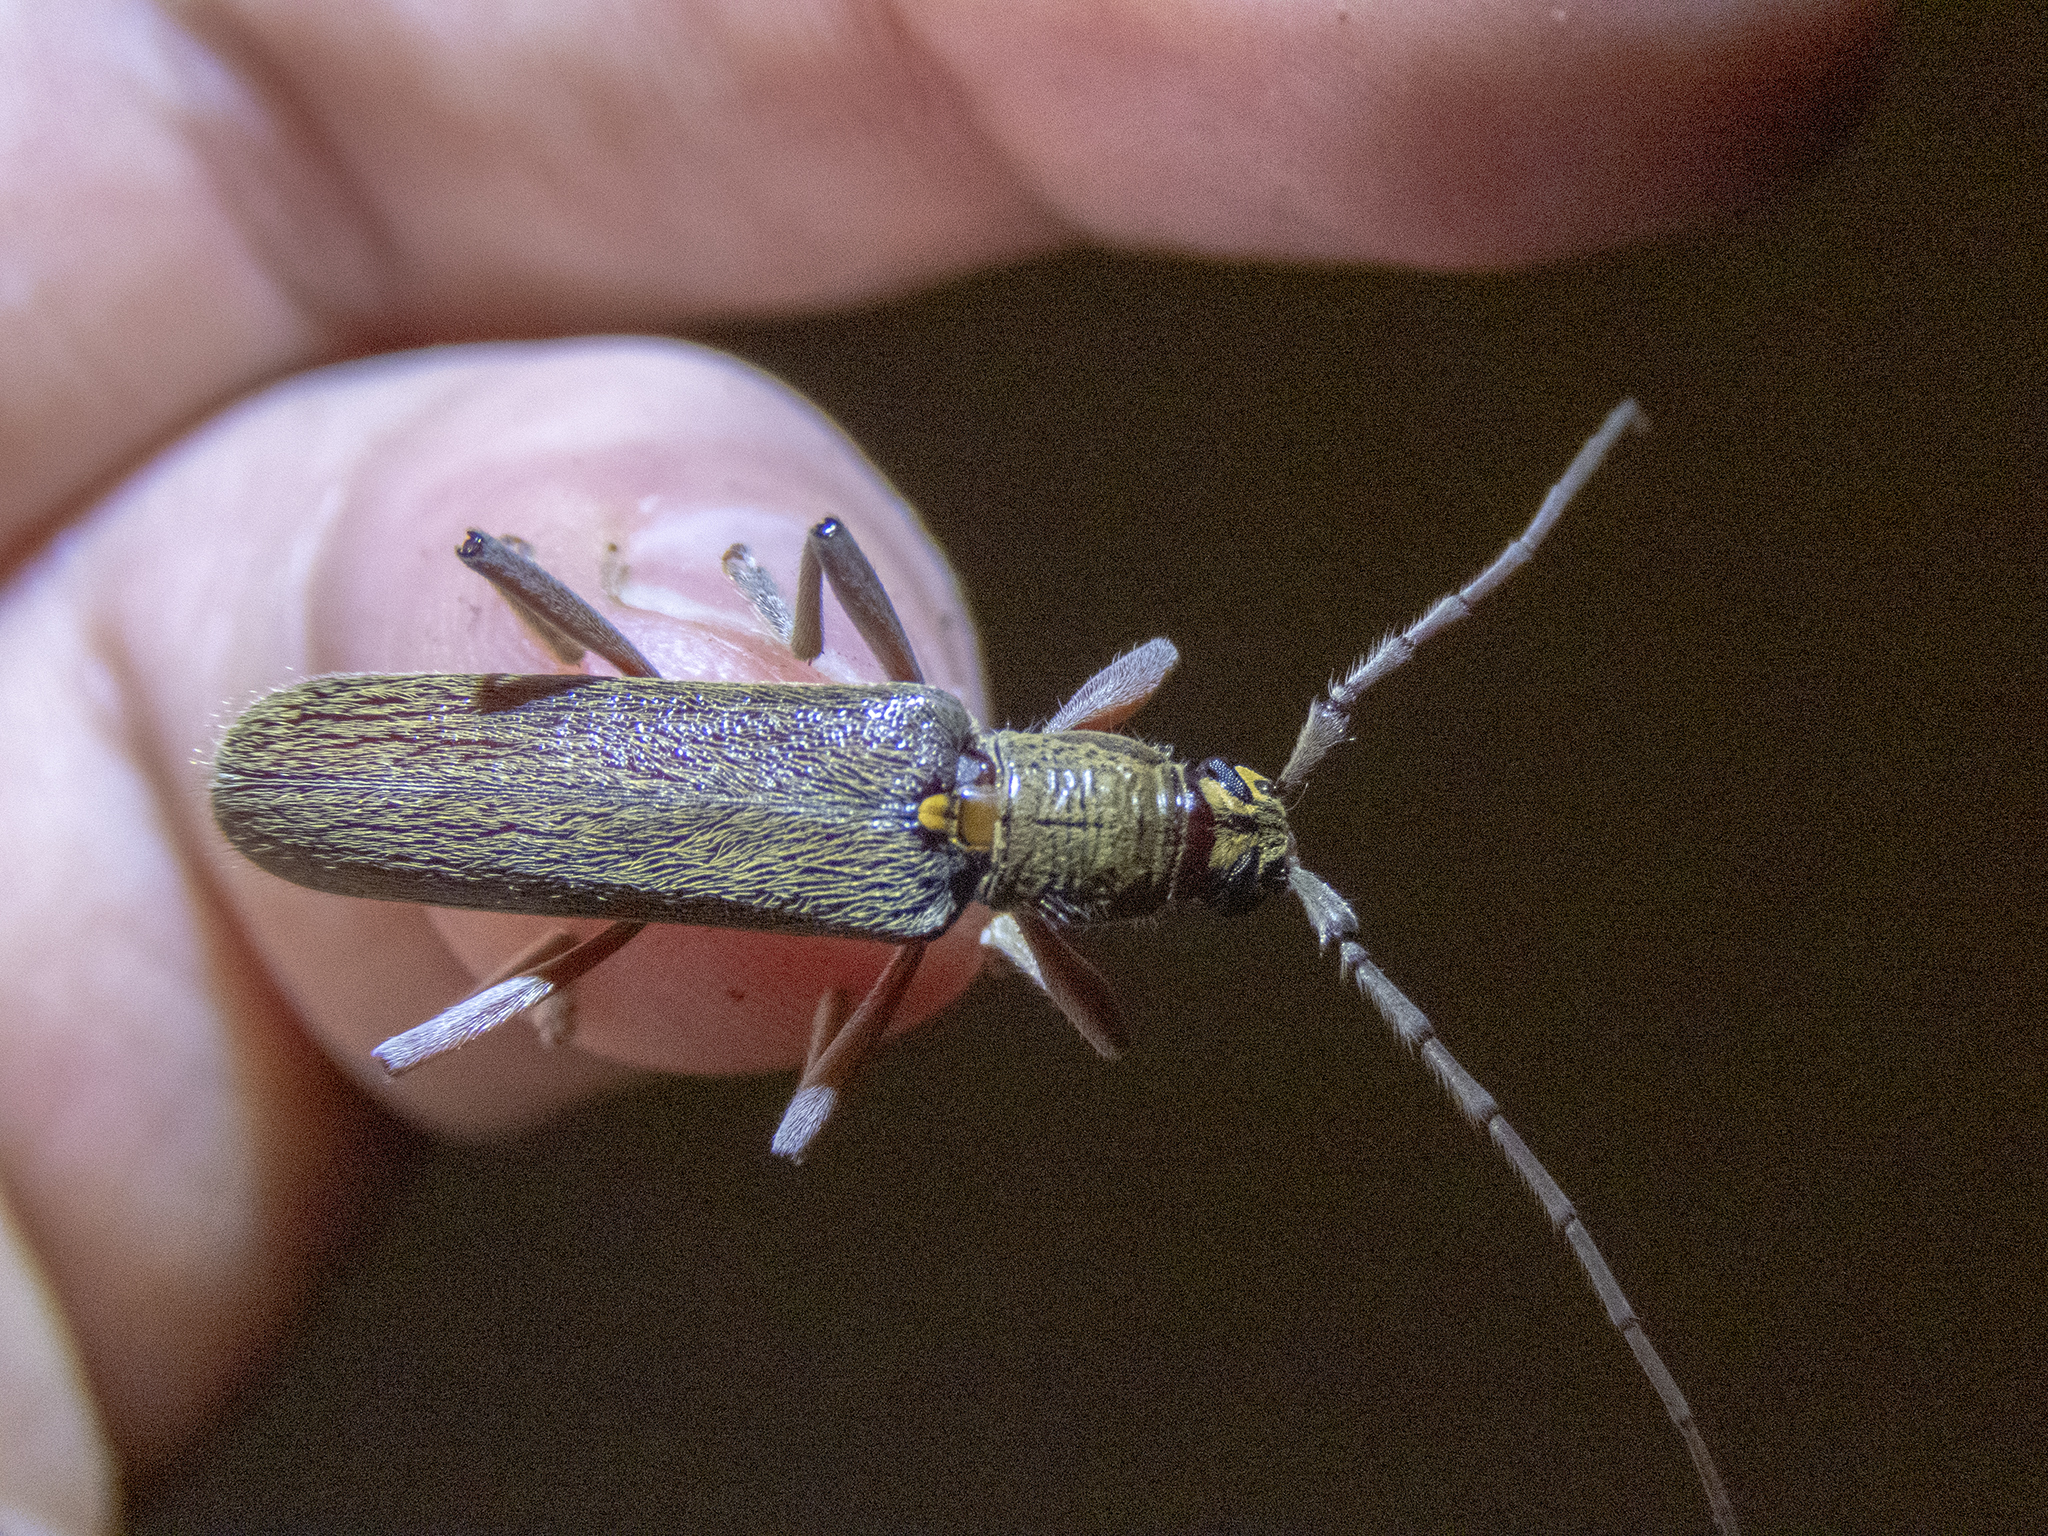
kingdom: Animalia
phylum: Arthropoda
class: Insecta
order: Coleoptera
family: Cerambycidae
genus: Oemona
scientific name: Oemona hirta
